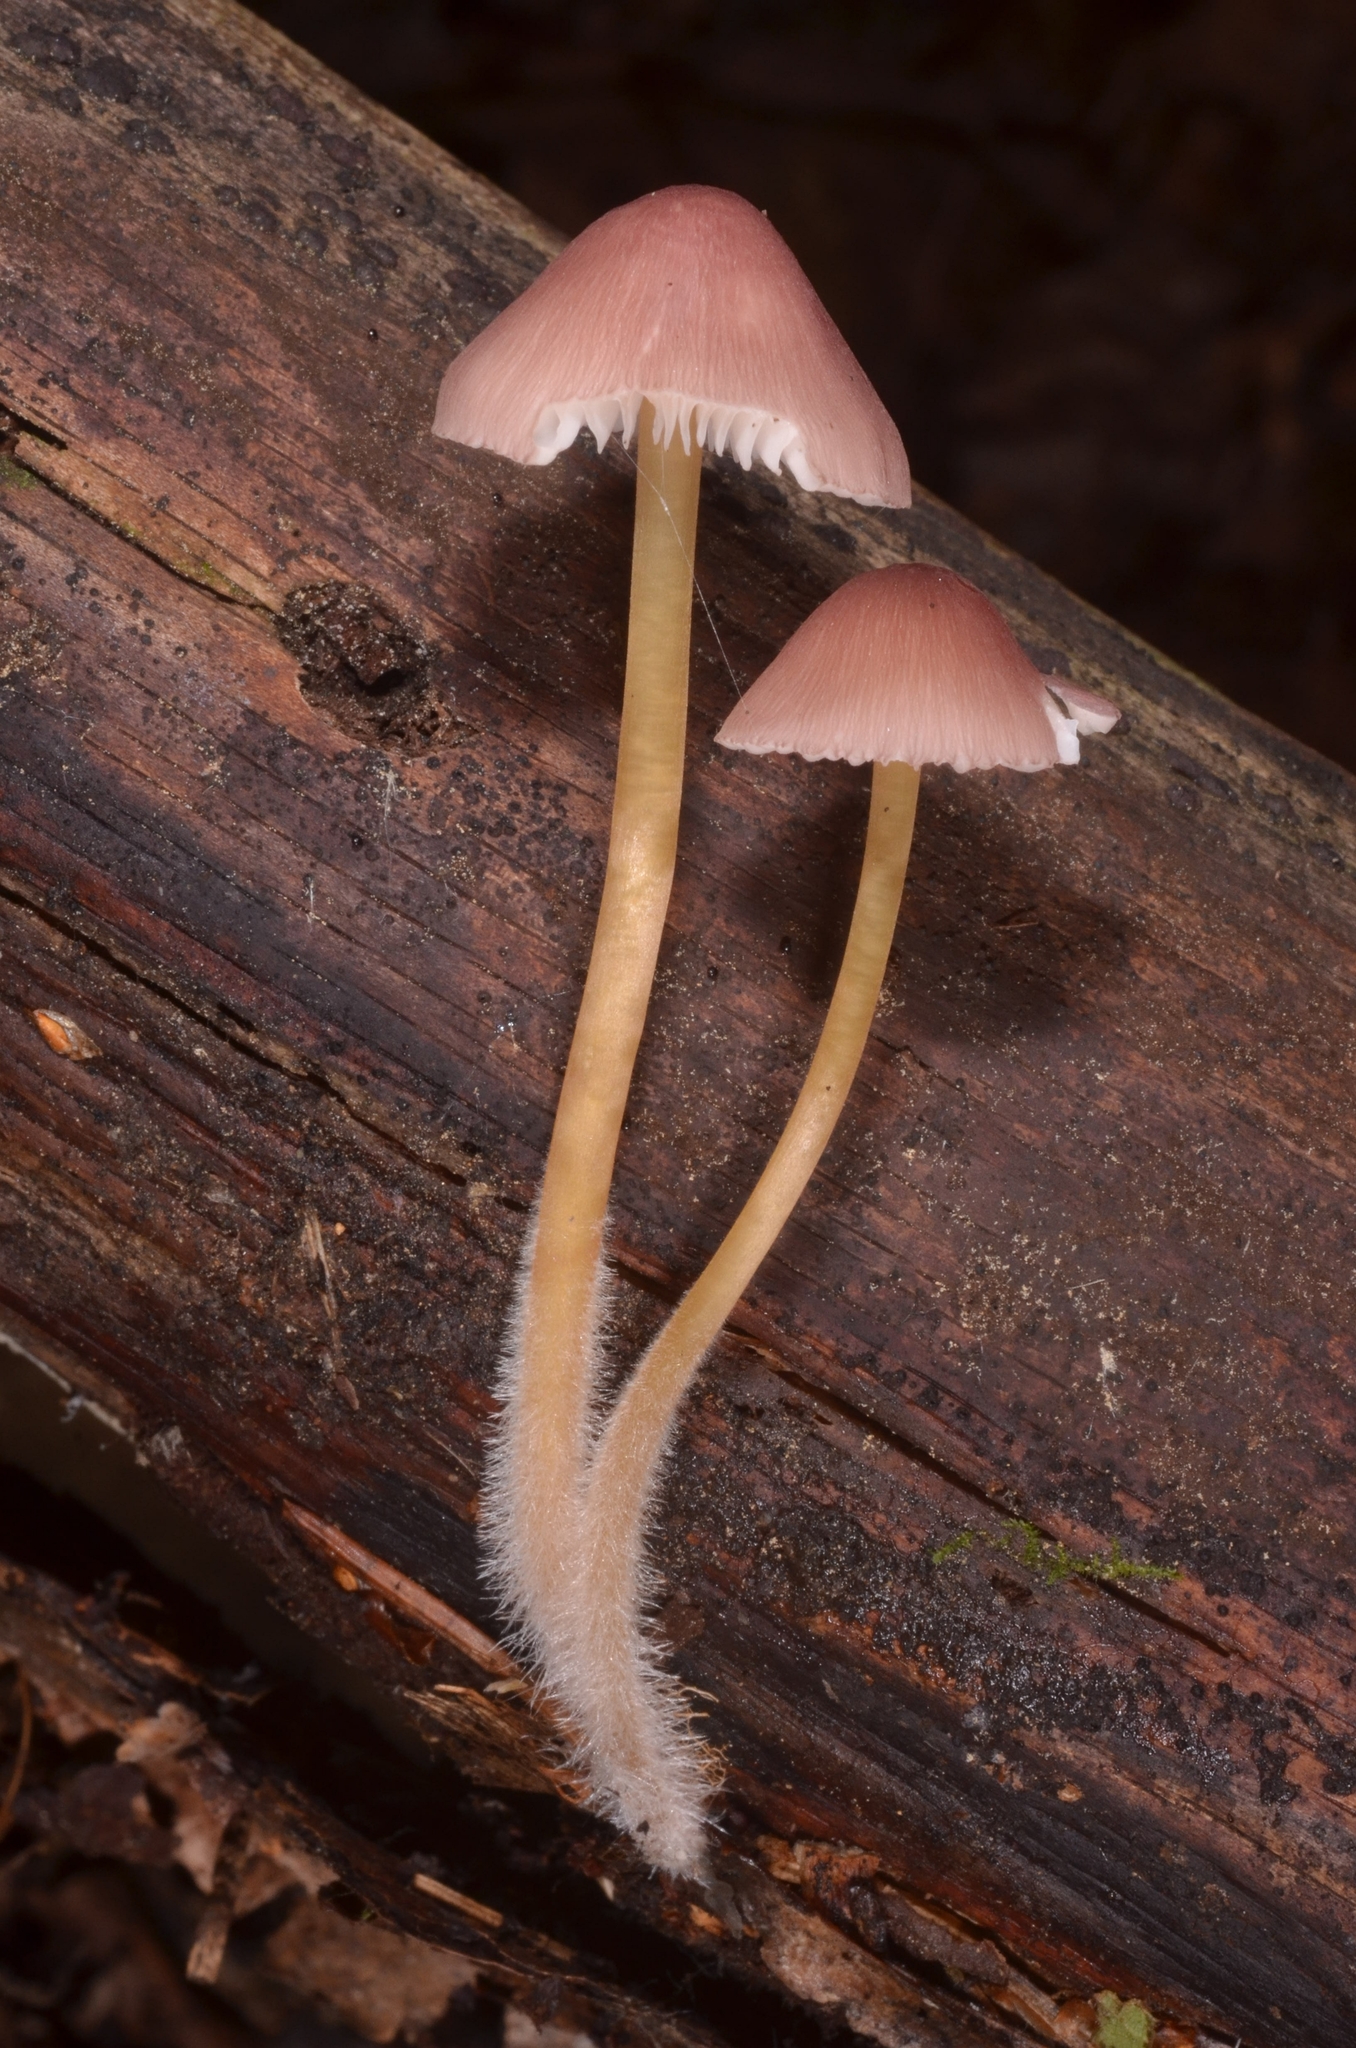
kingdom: Fungi
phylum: Basidiomycota
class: Agaricomycetes
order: Agaricales
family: Mycenaceae
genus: Mycena
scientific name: Mycena renati
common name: Beautiful bonnet
